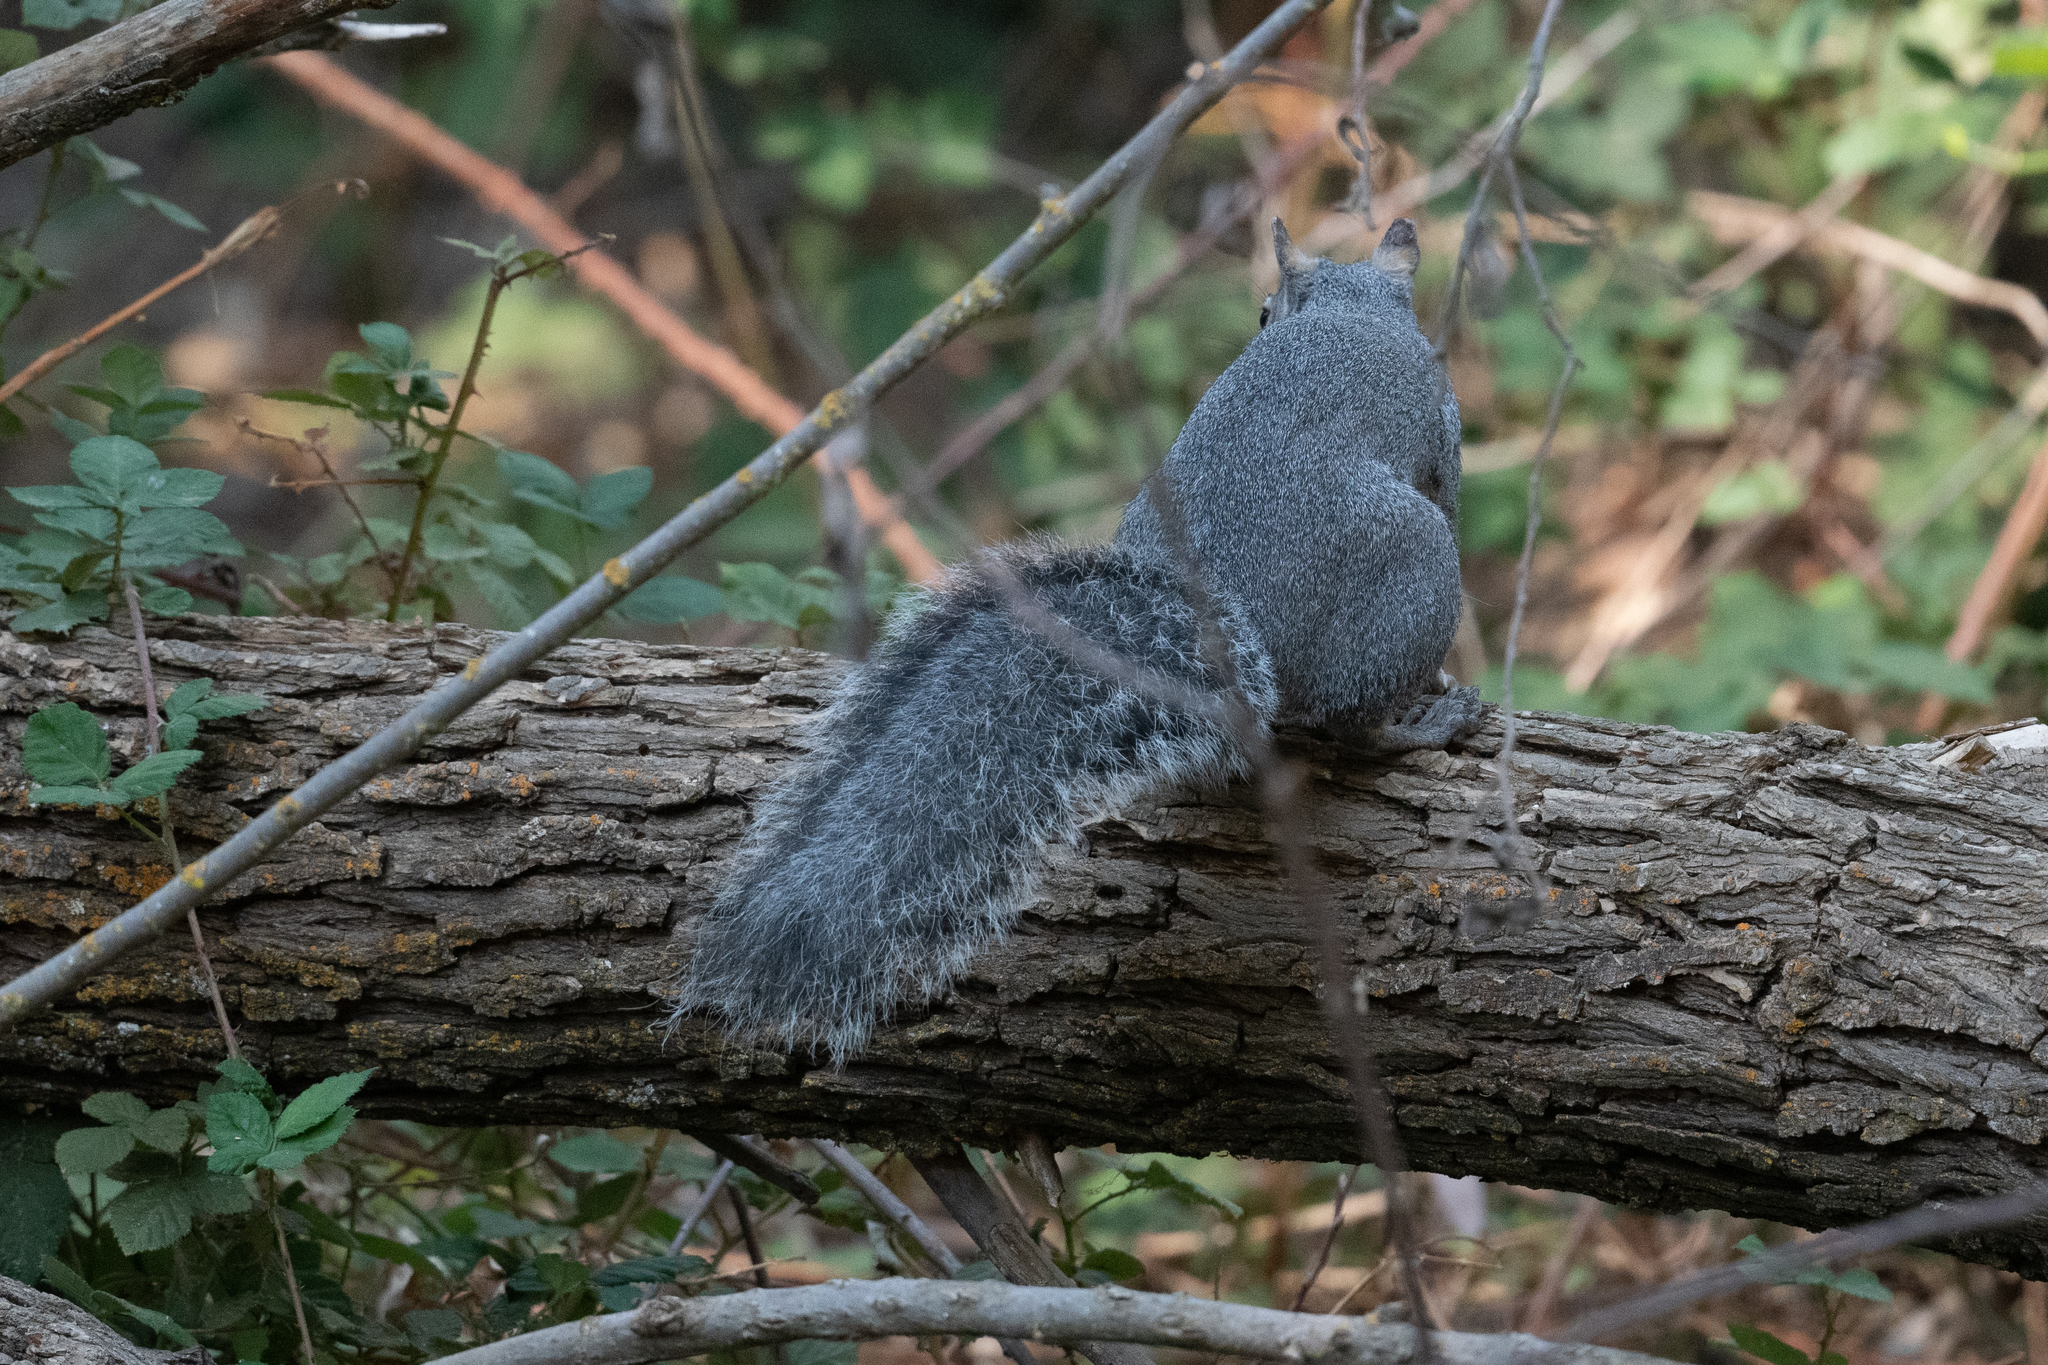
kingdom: Animalia
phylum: Chordata
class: Mammalia
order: Rodentia
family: Sciuridae
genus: Sciurus
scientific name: Sciurus griseus
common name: Western gray squirrel
